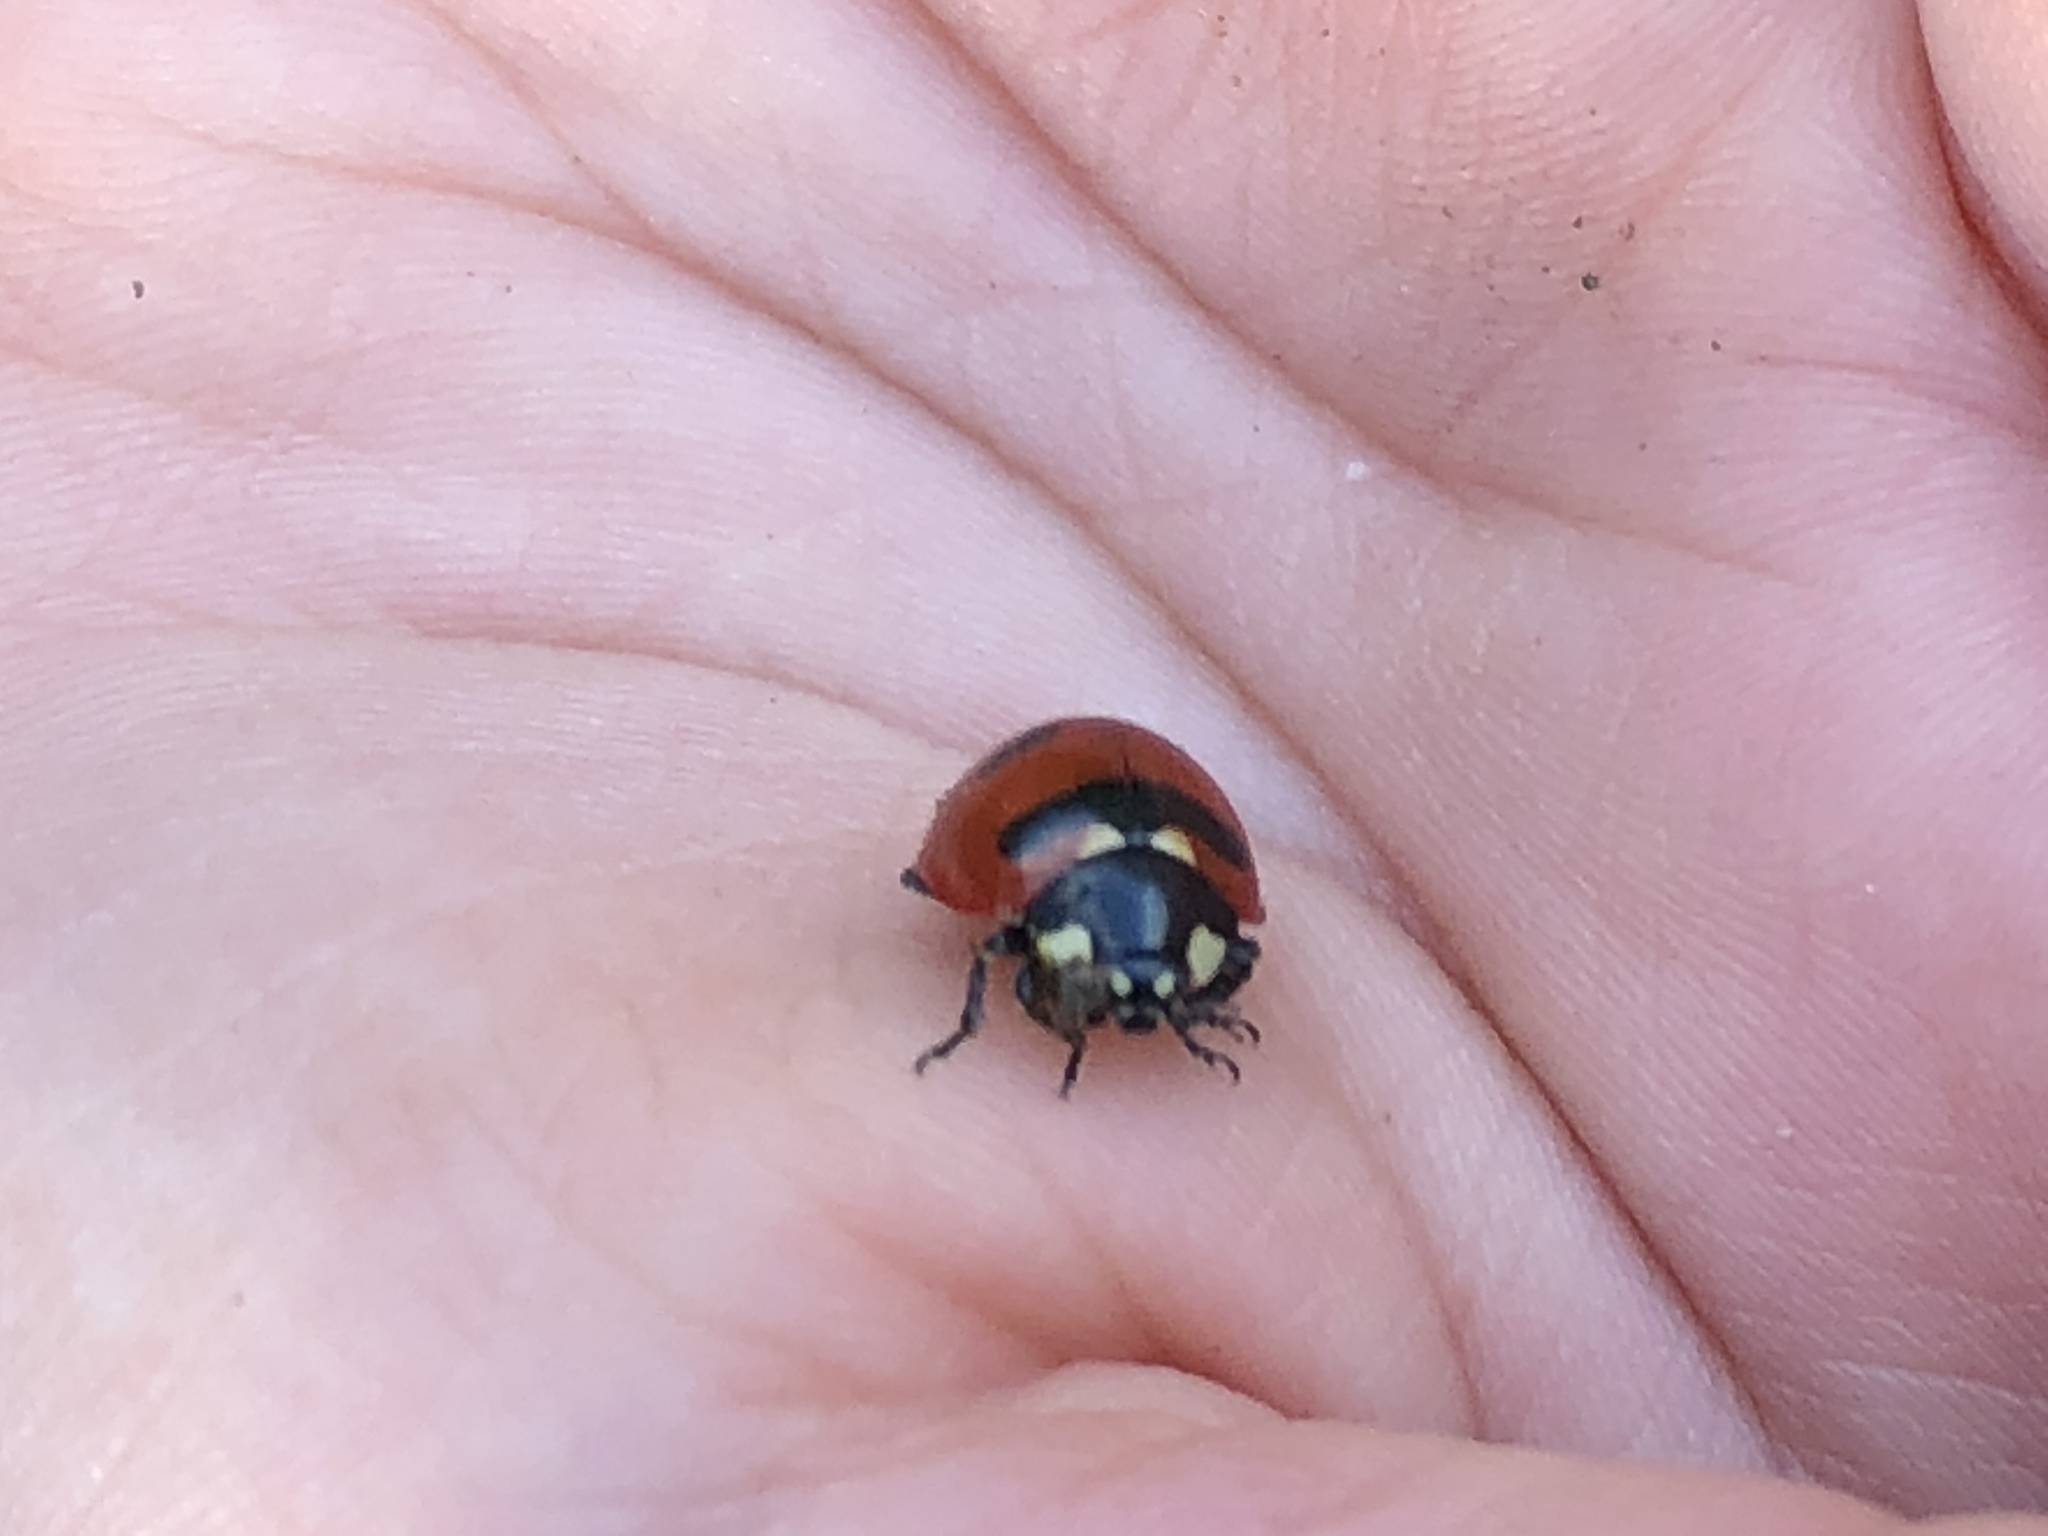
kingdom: Animalia
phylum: Arthropoda
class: Insecta
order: Coleoptera
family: Coccinellidae
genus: Coccinella
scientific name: Coccinella transversoguttata
